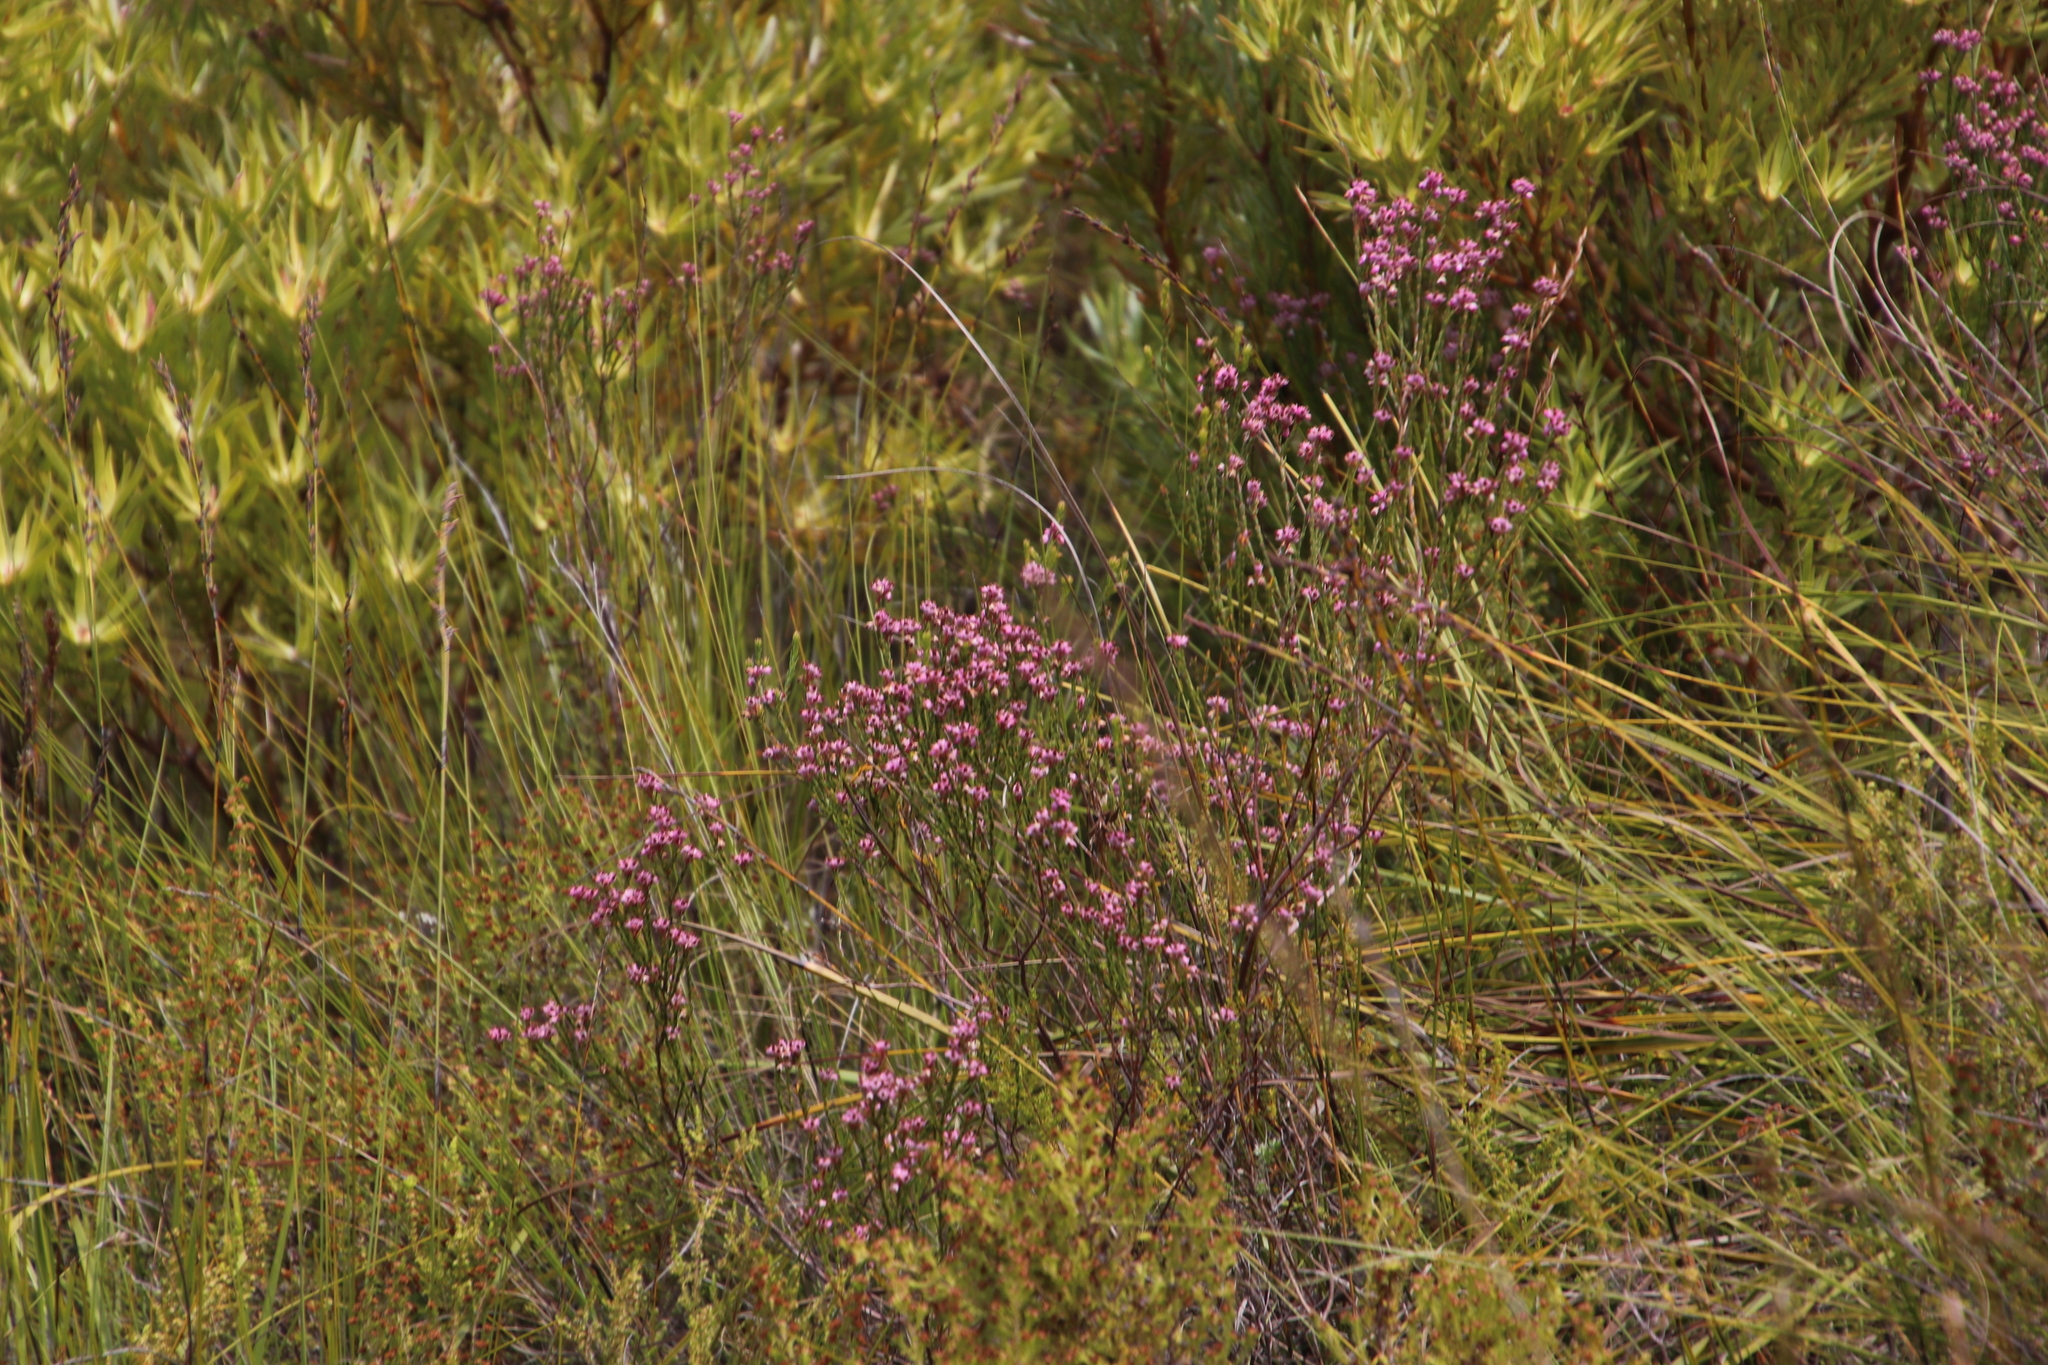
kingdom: Plantae
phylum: Tracheophyta
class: Magnoliopsida
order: Ericales
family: Ericaceae
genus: Erica
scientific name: Erica corifolia
